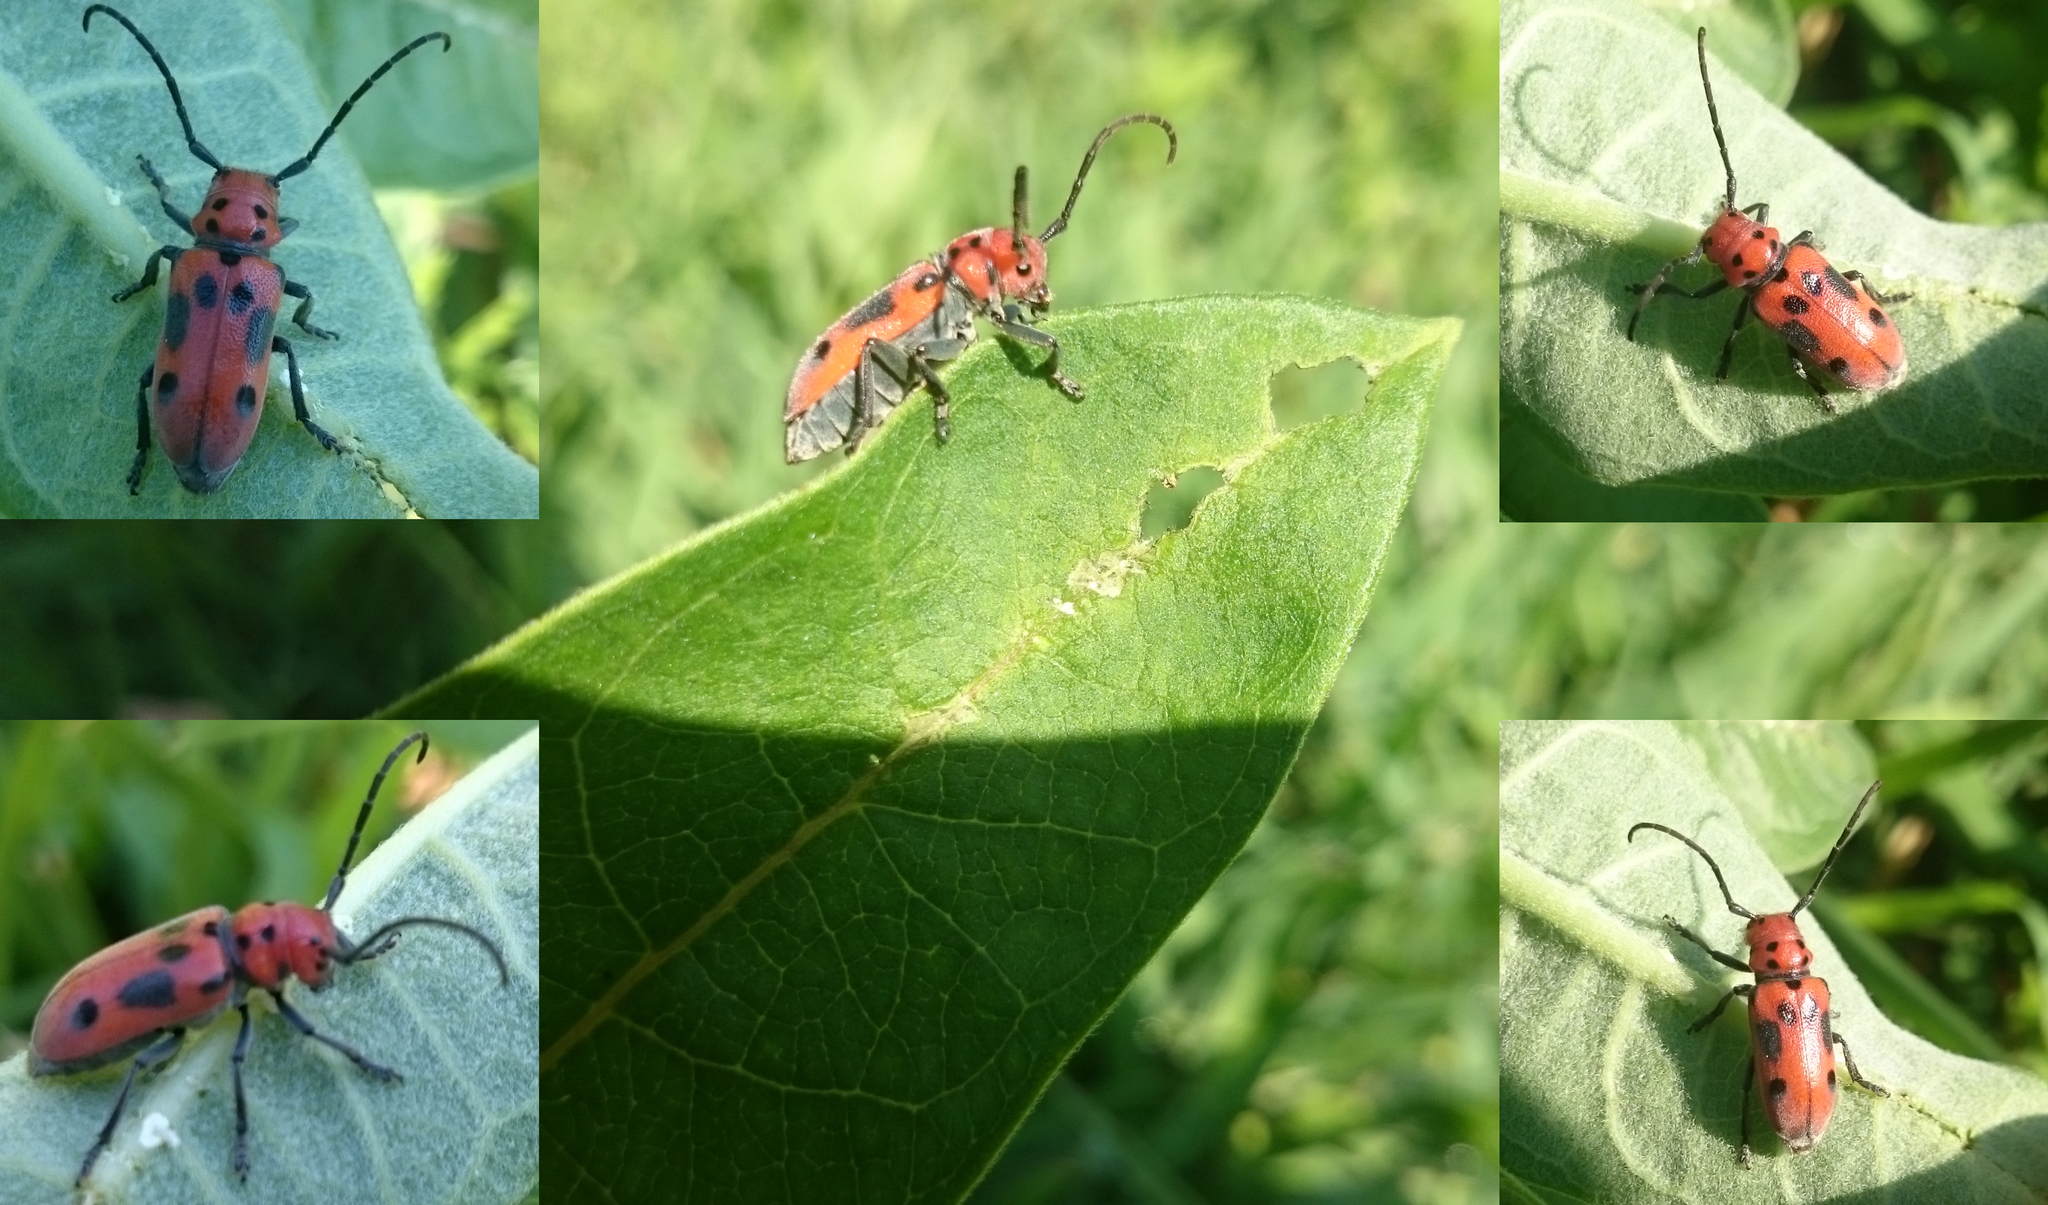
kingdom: Animalia
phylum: Arthropoda
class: Insecta
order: Coleoptera
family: Cerambycidae
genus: Tetraopes
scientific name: Tetraopes tetrophthalmus
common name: Red milkweed beetle
